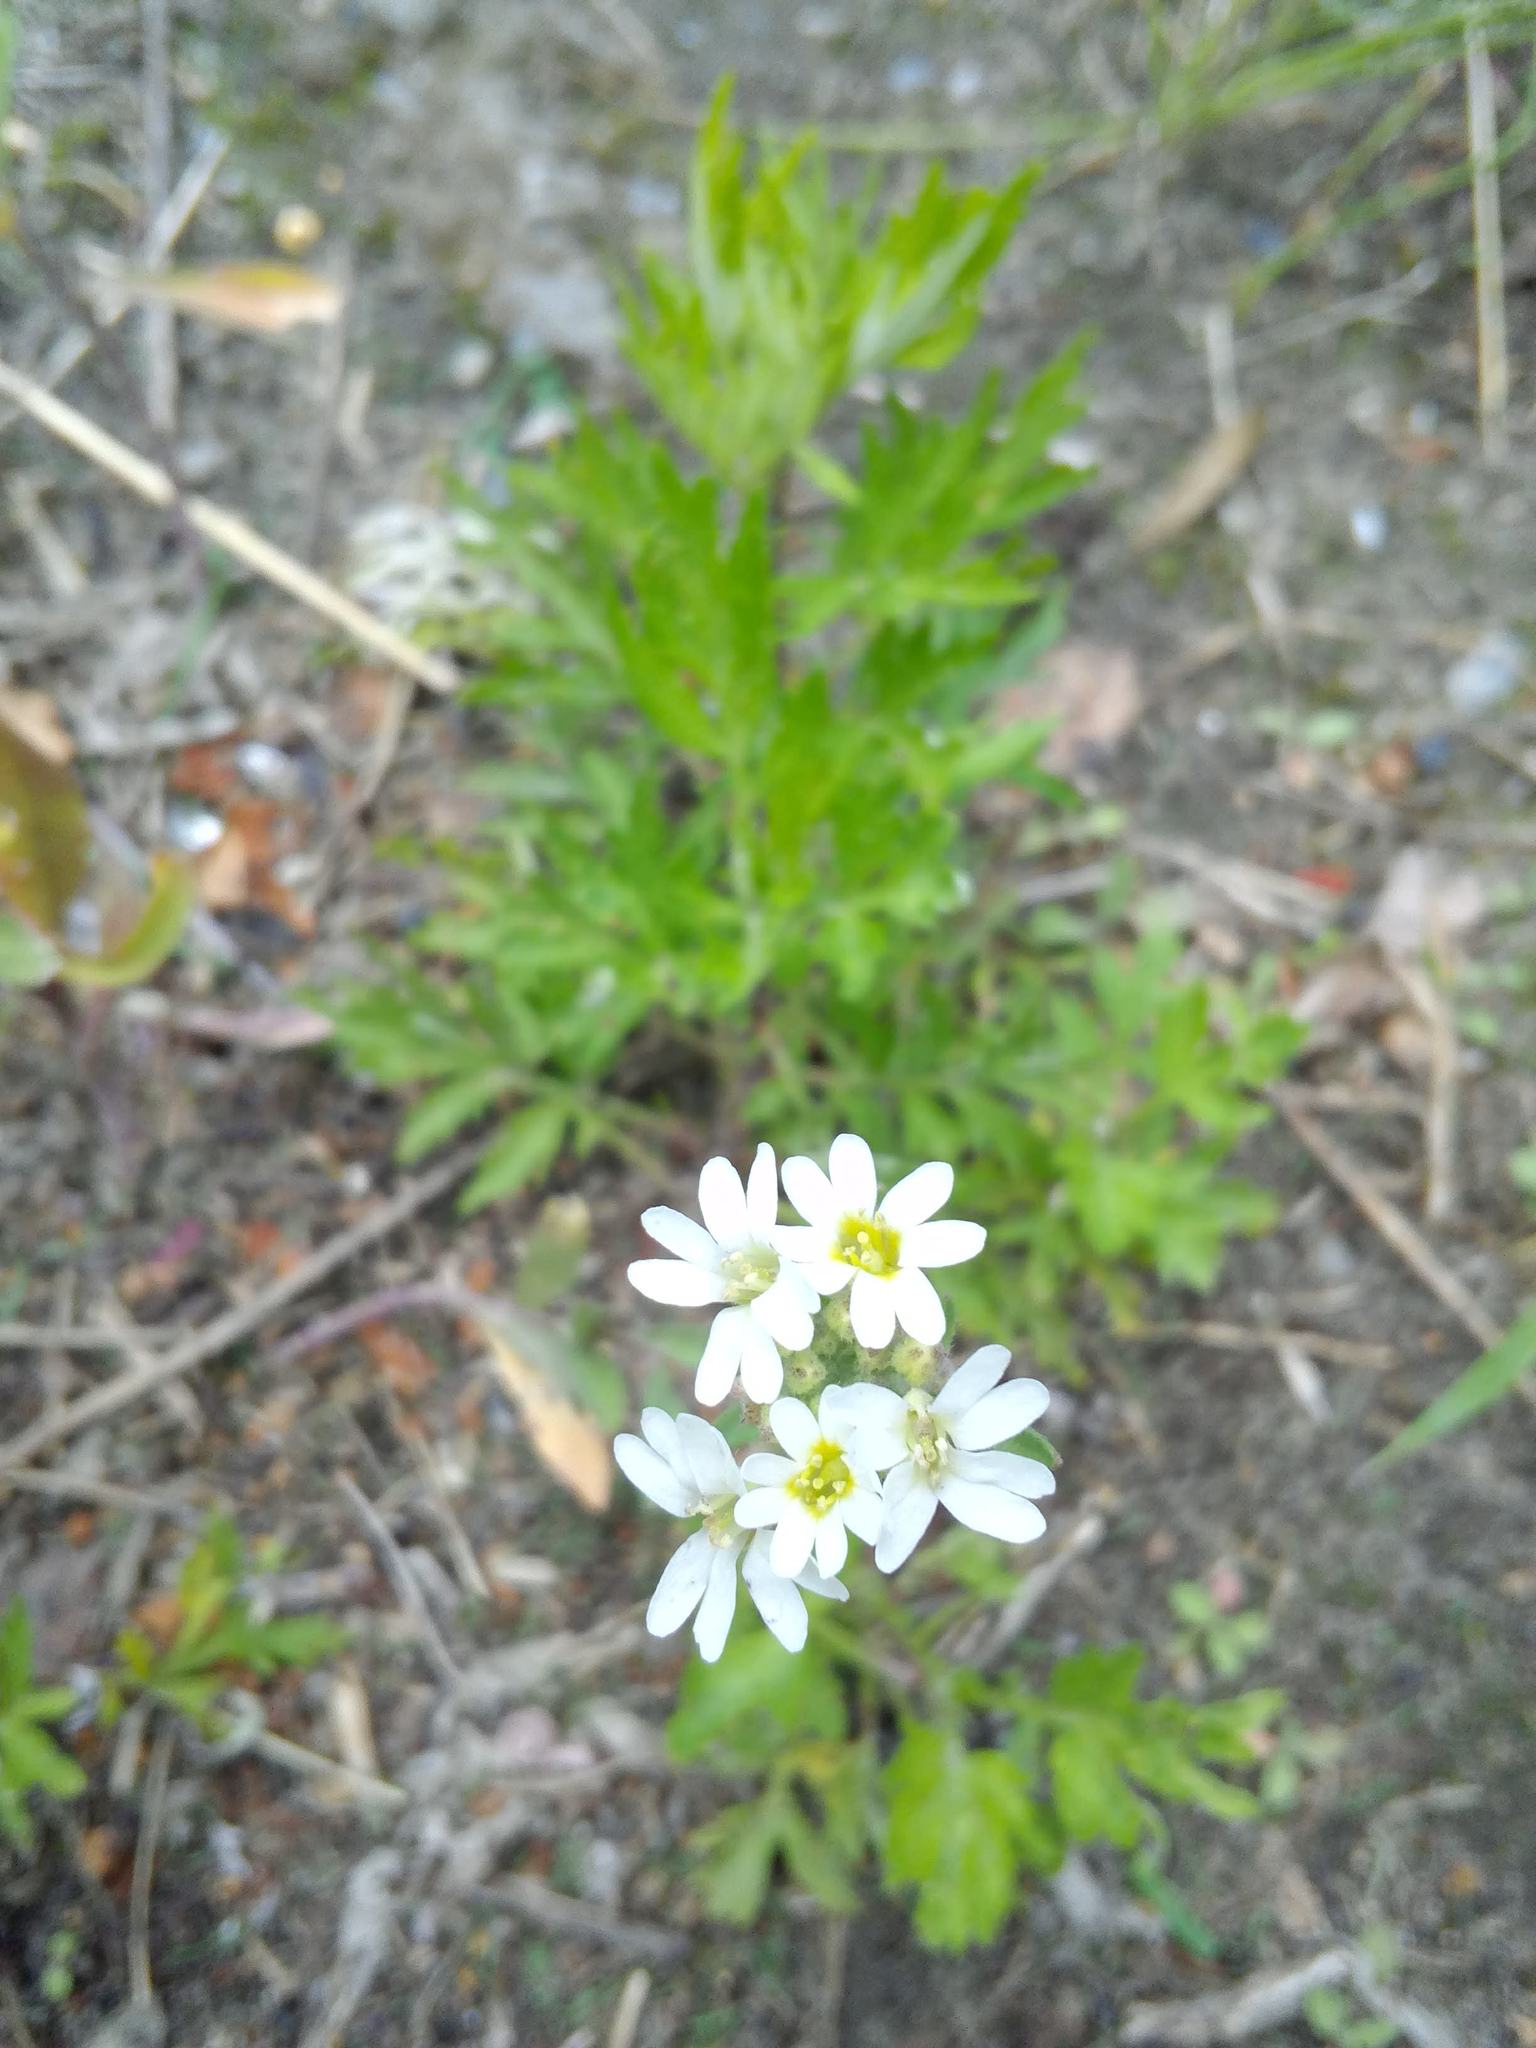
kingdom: Plantae
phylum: Tracheophyta
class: Magnoliopsida
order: Brassicales
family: Brassicaceae
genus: Berteroa
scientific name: Berteroa incana
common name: Hoary alison
